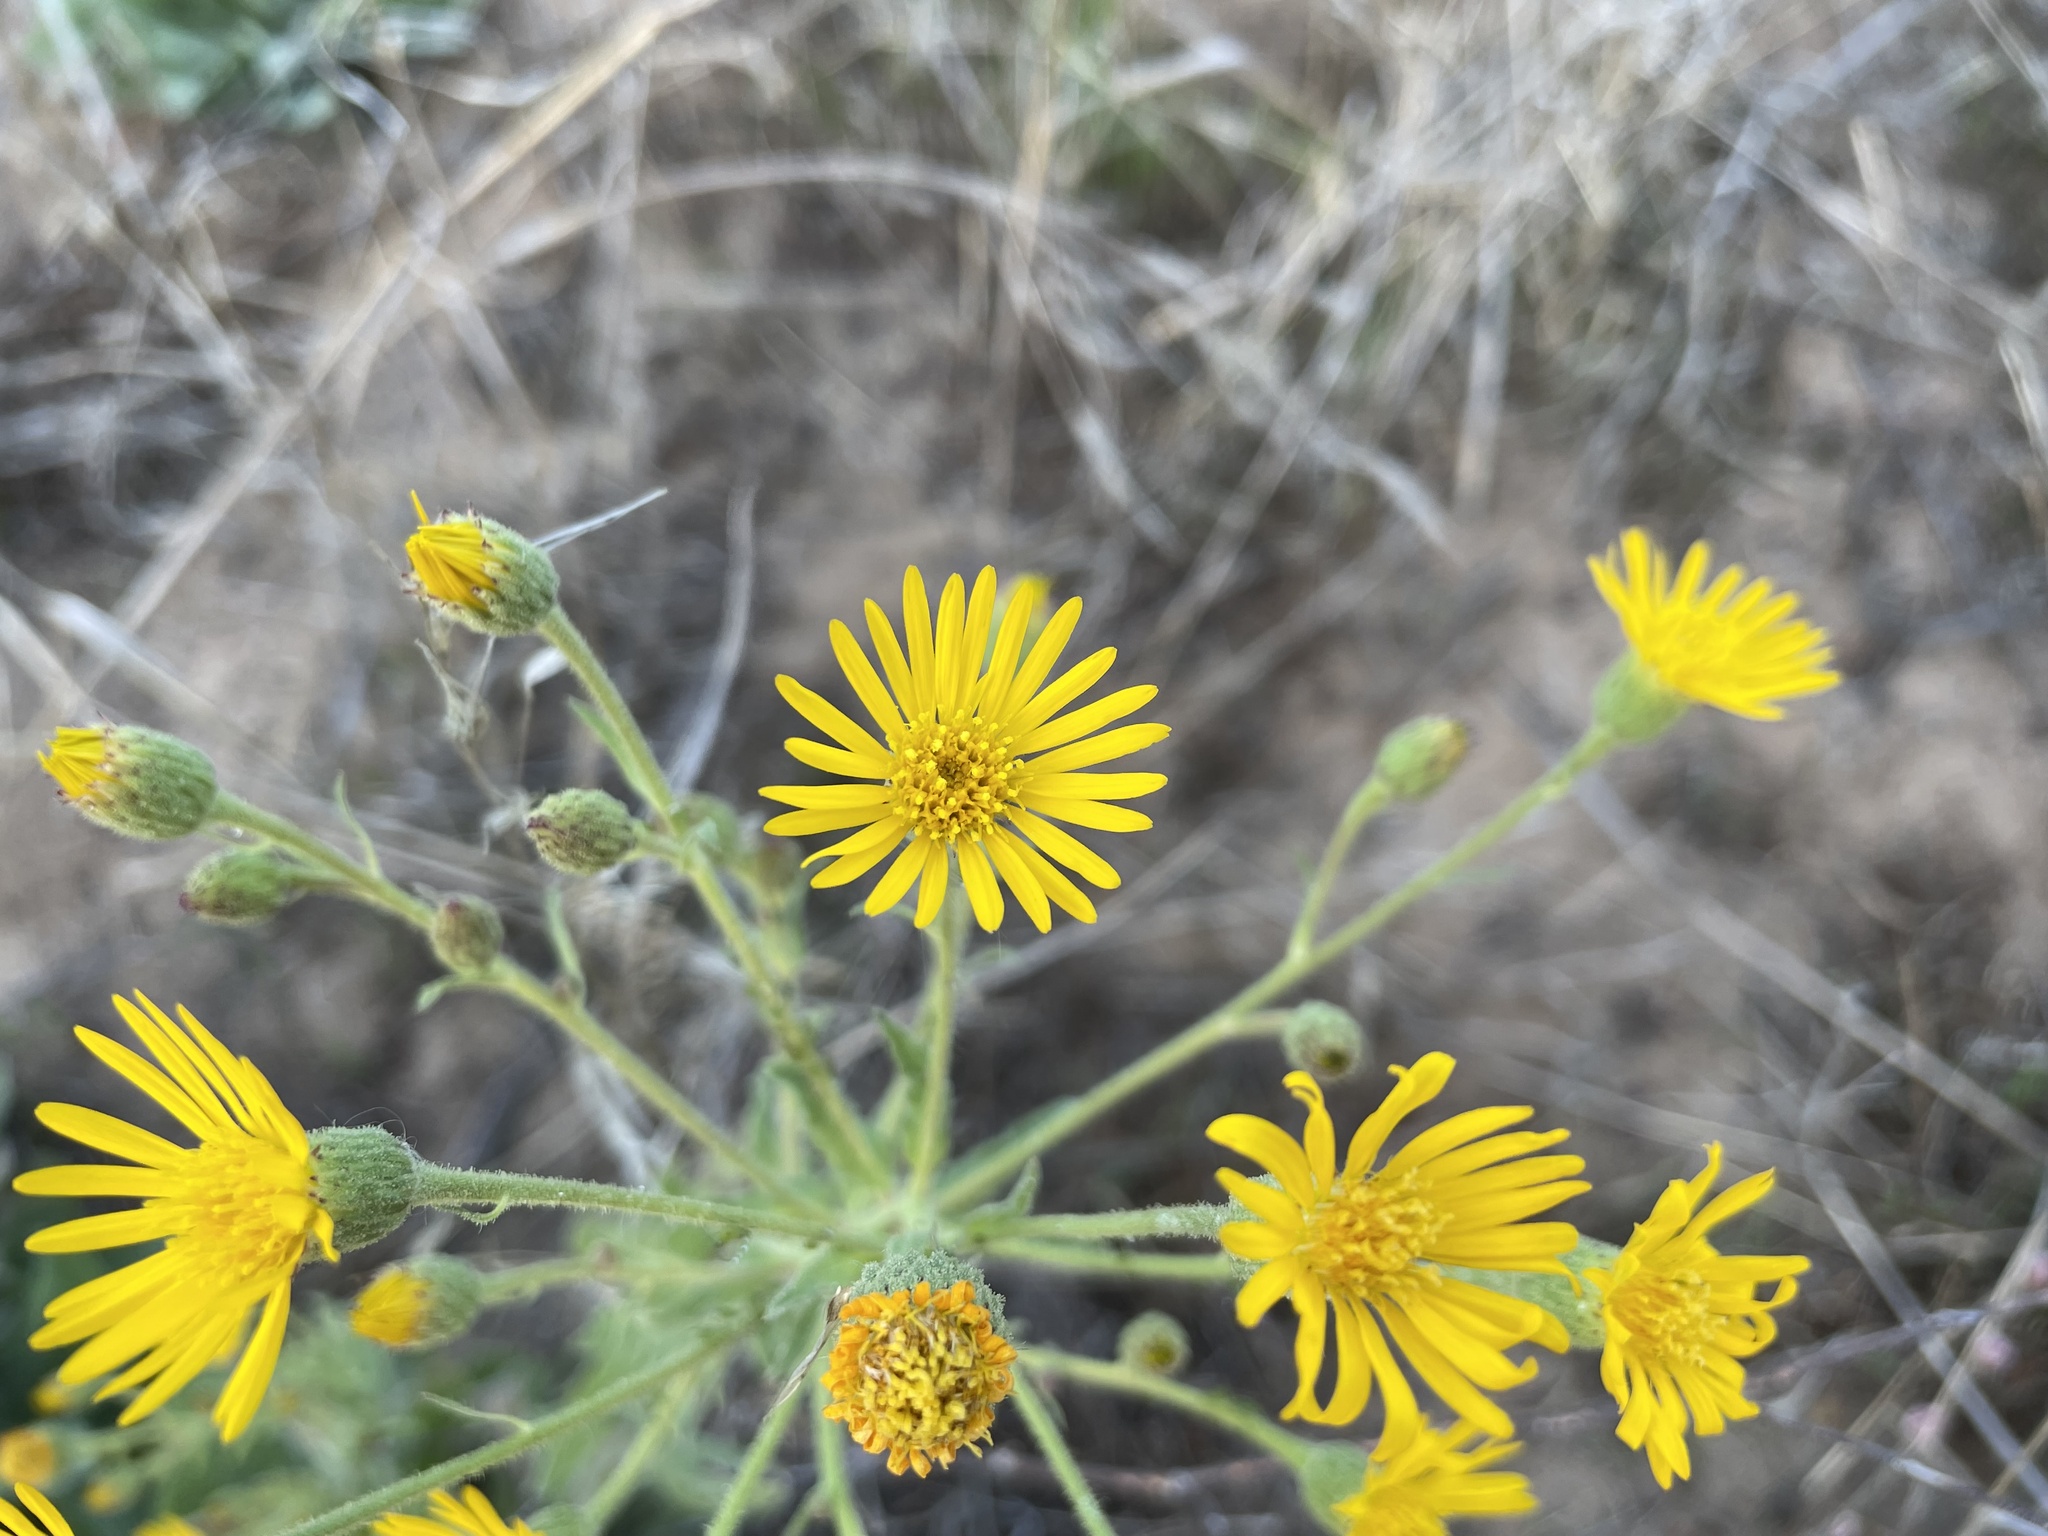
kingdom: Plantae
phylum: Tracheophyta
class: Magnoliopsida
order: Asterales
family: Asteraceae
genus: Heterotheca
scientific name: Heterotheca grandiflora
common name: Telegraphweed
